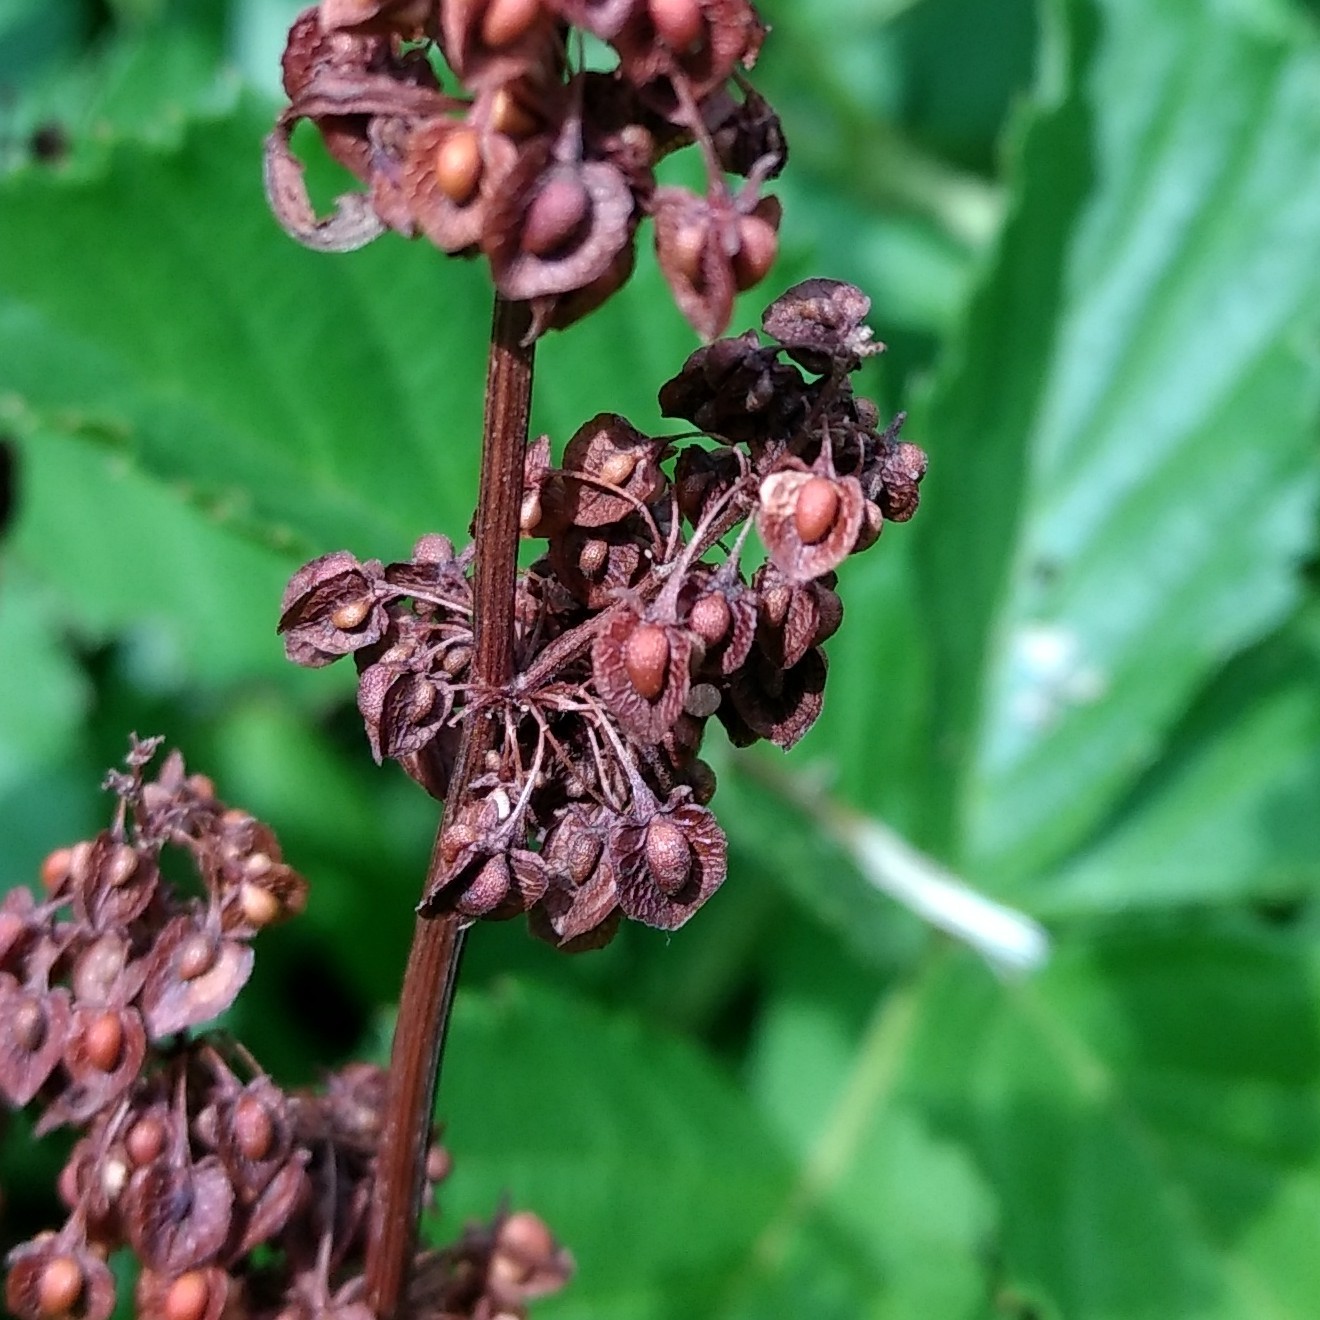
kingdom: Plantae
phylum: Tracheophyta
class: Magnoliopsida
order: Caryophyllales
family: Polygonaceae
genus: Rumex
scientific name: Rumex crispus
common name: Curled dock
